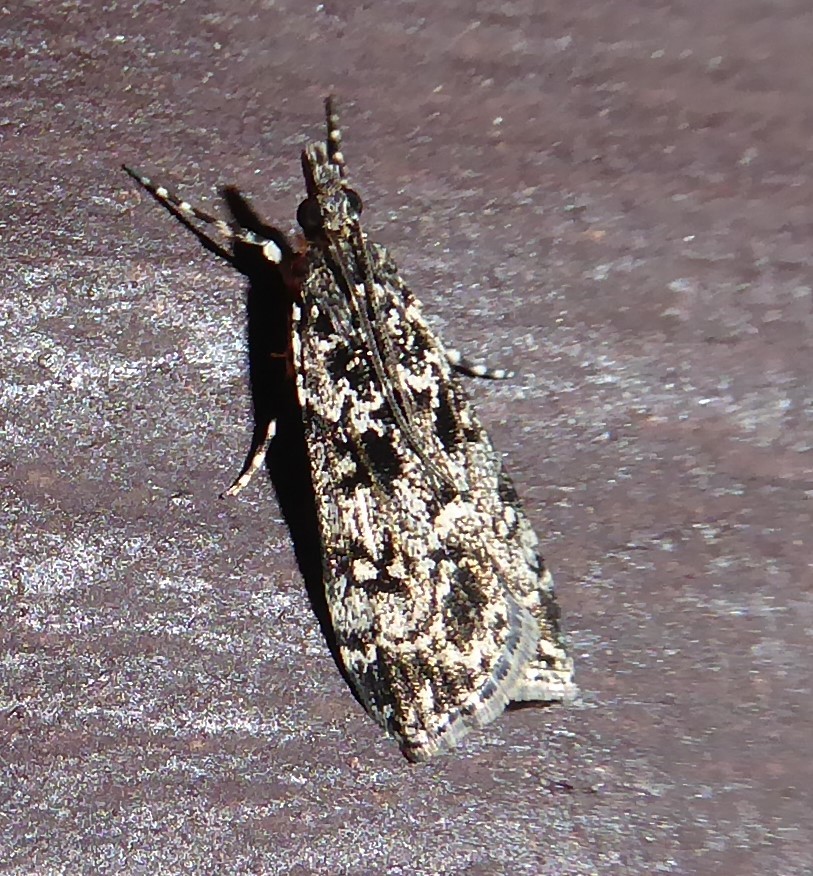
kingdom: Animalia
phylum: Arthropoda
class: Insecta
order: Lepidoptera
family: Crambidae
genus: Eudonia
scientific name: Eudonia philerga
